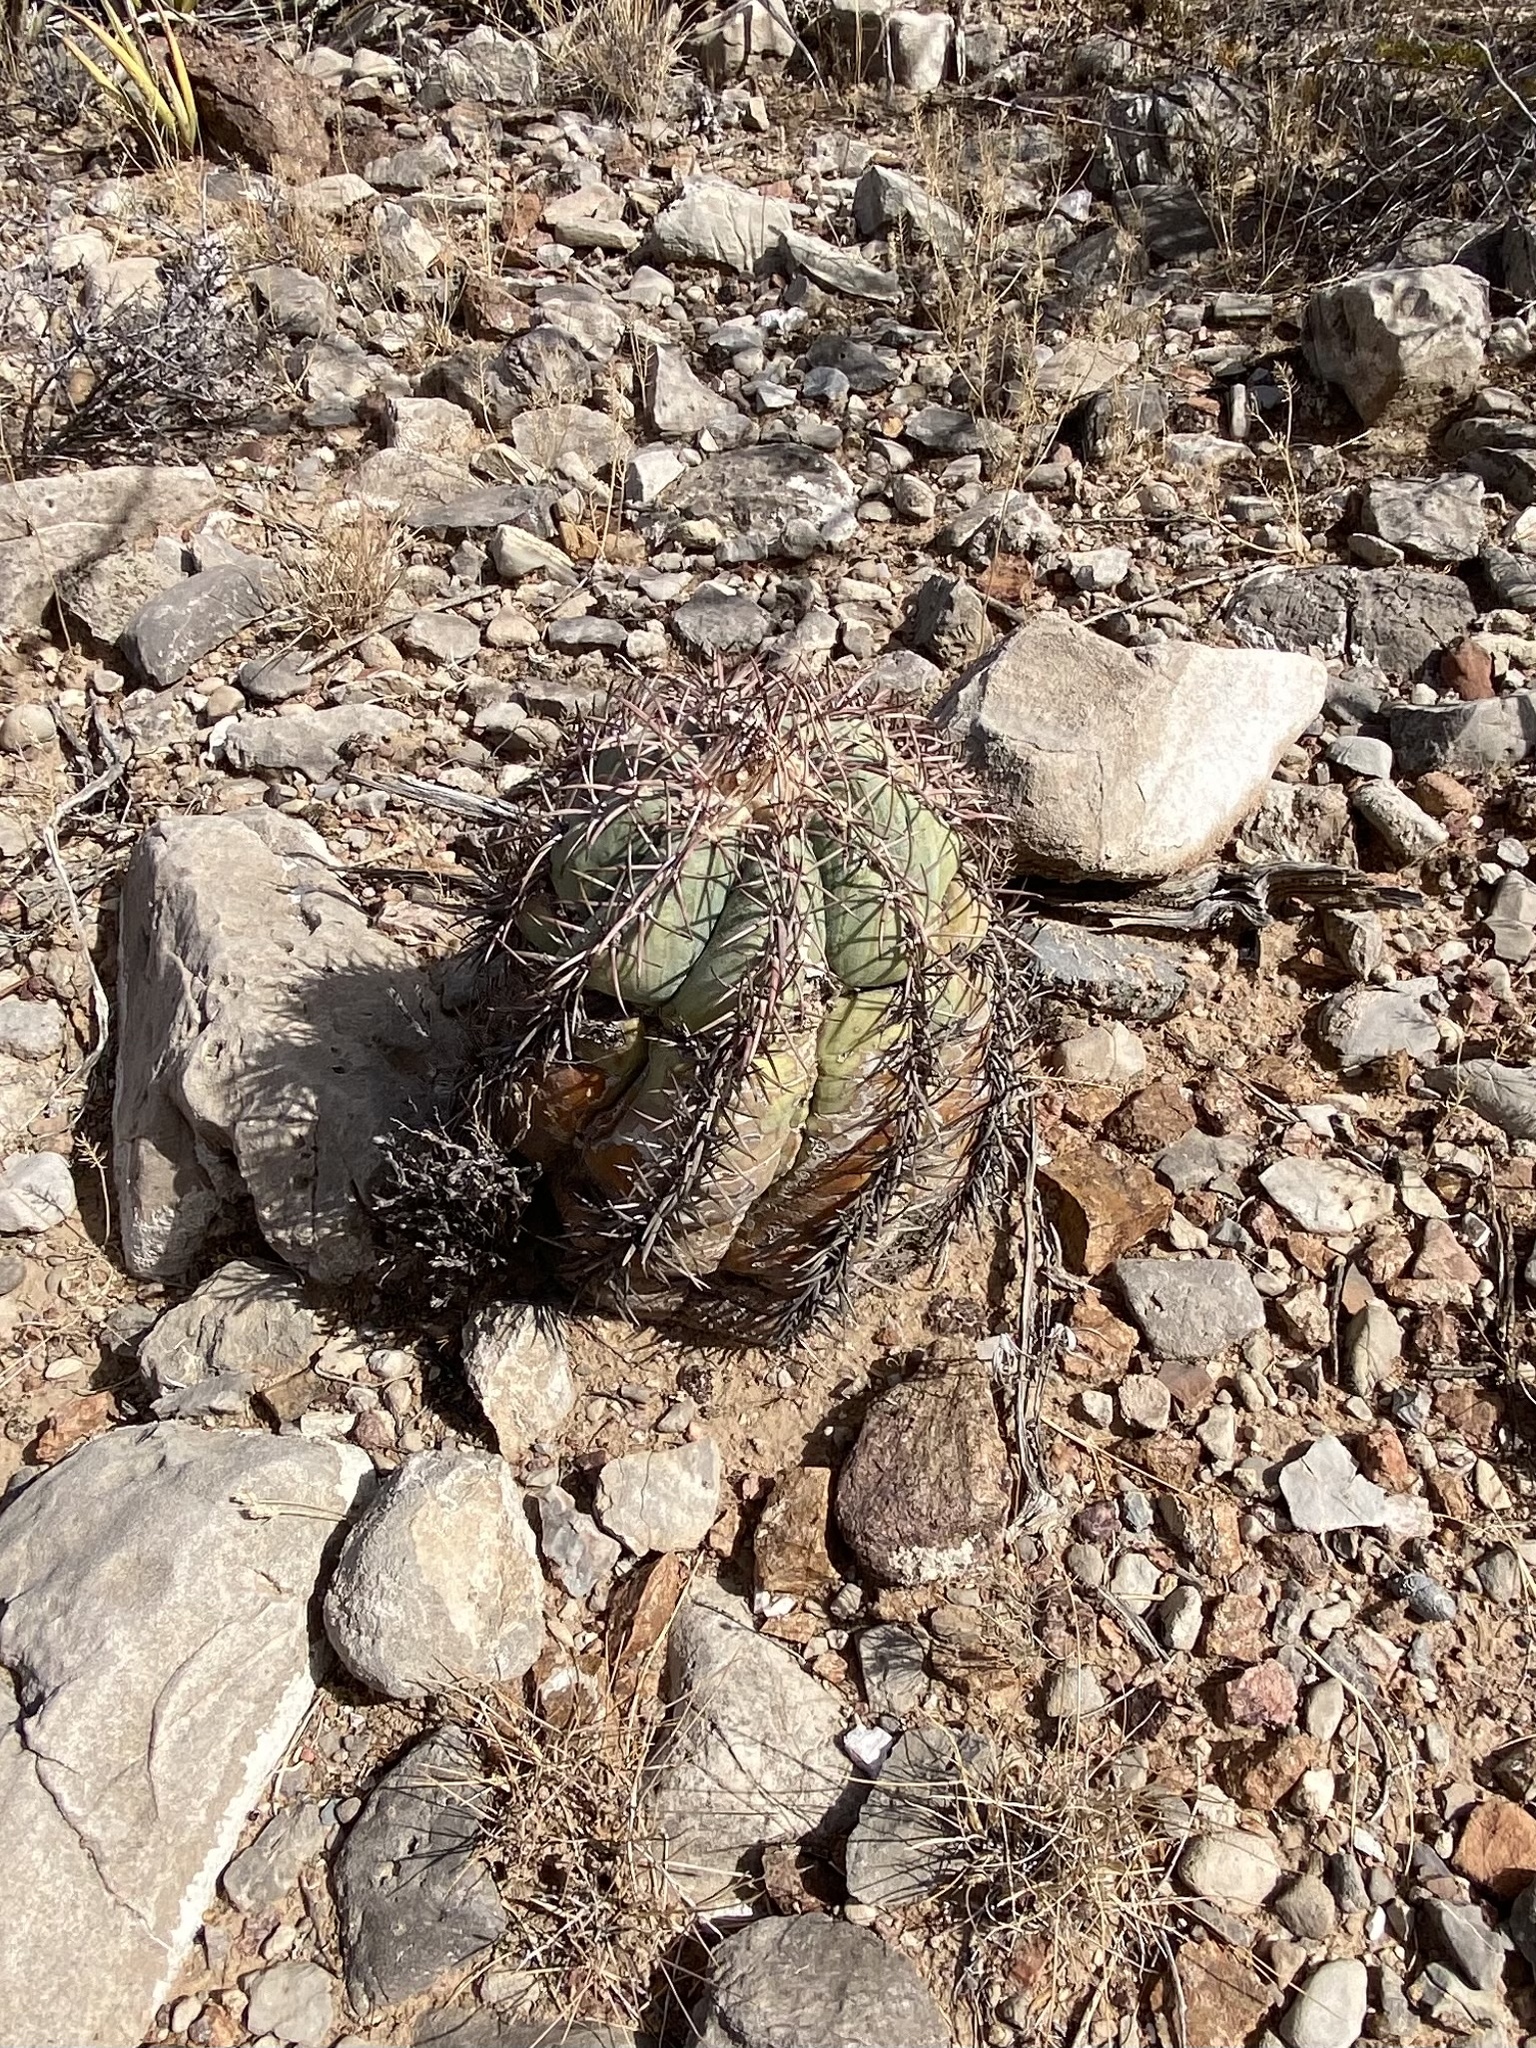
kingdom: Plantae
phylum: Tracheophyta
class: Magnoliopsida
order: Caryophyllales
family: Cactaceae
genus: Echinocactus
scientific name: Echinocactus horizonthalonius
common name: Devilshead
